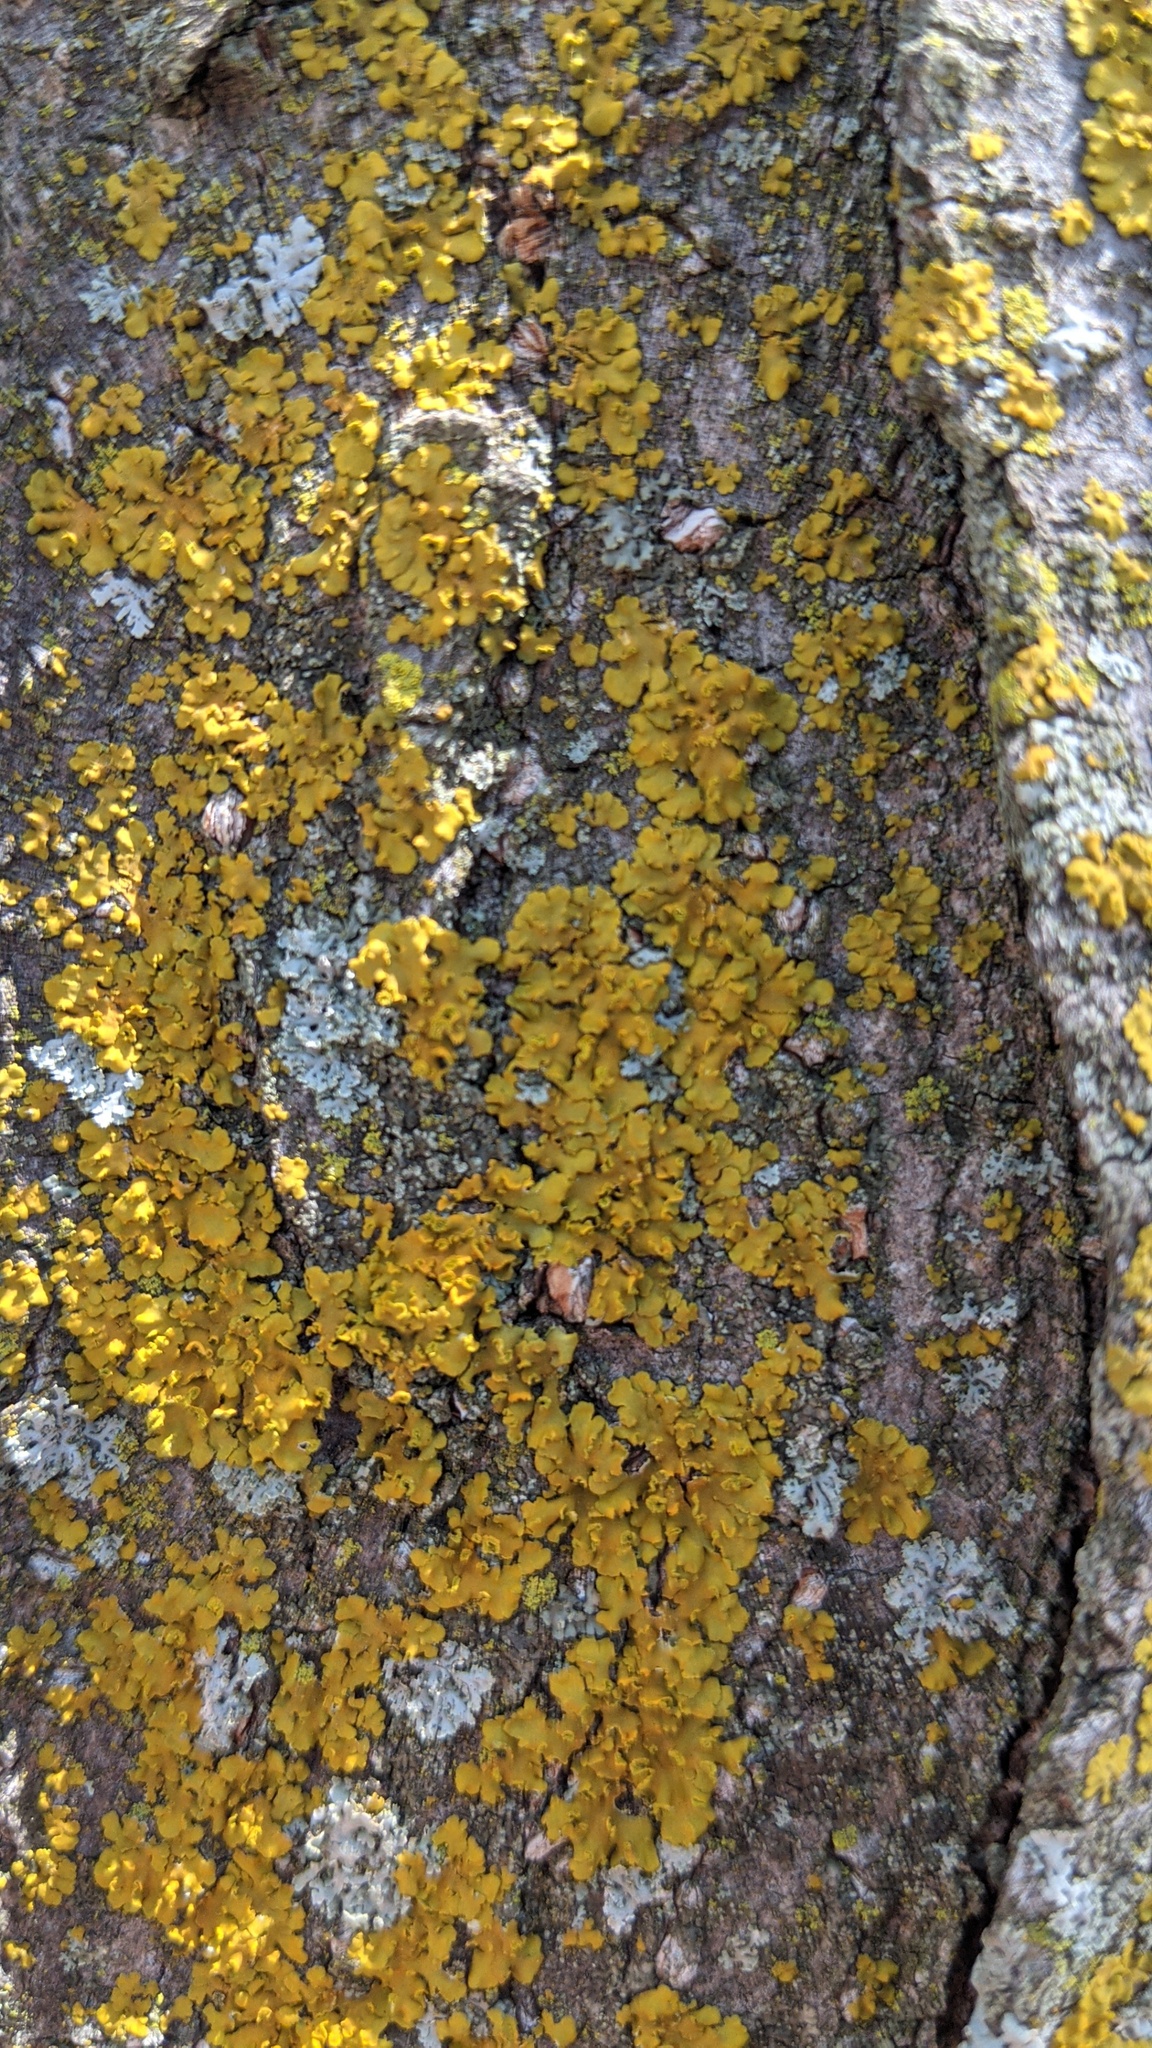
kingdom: Fungi
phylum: Ascomycota
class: Lecanoromycetes
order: Teloschistales
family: Teloschistaceae
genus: Oxneria
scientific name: Oxneria fallax
